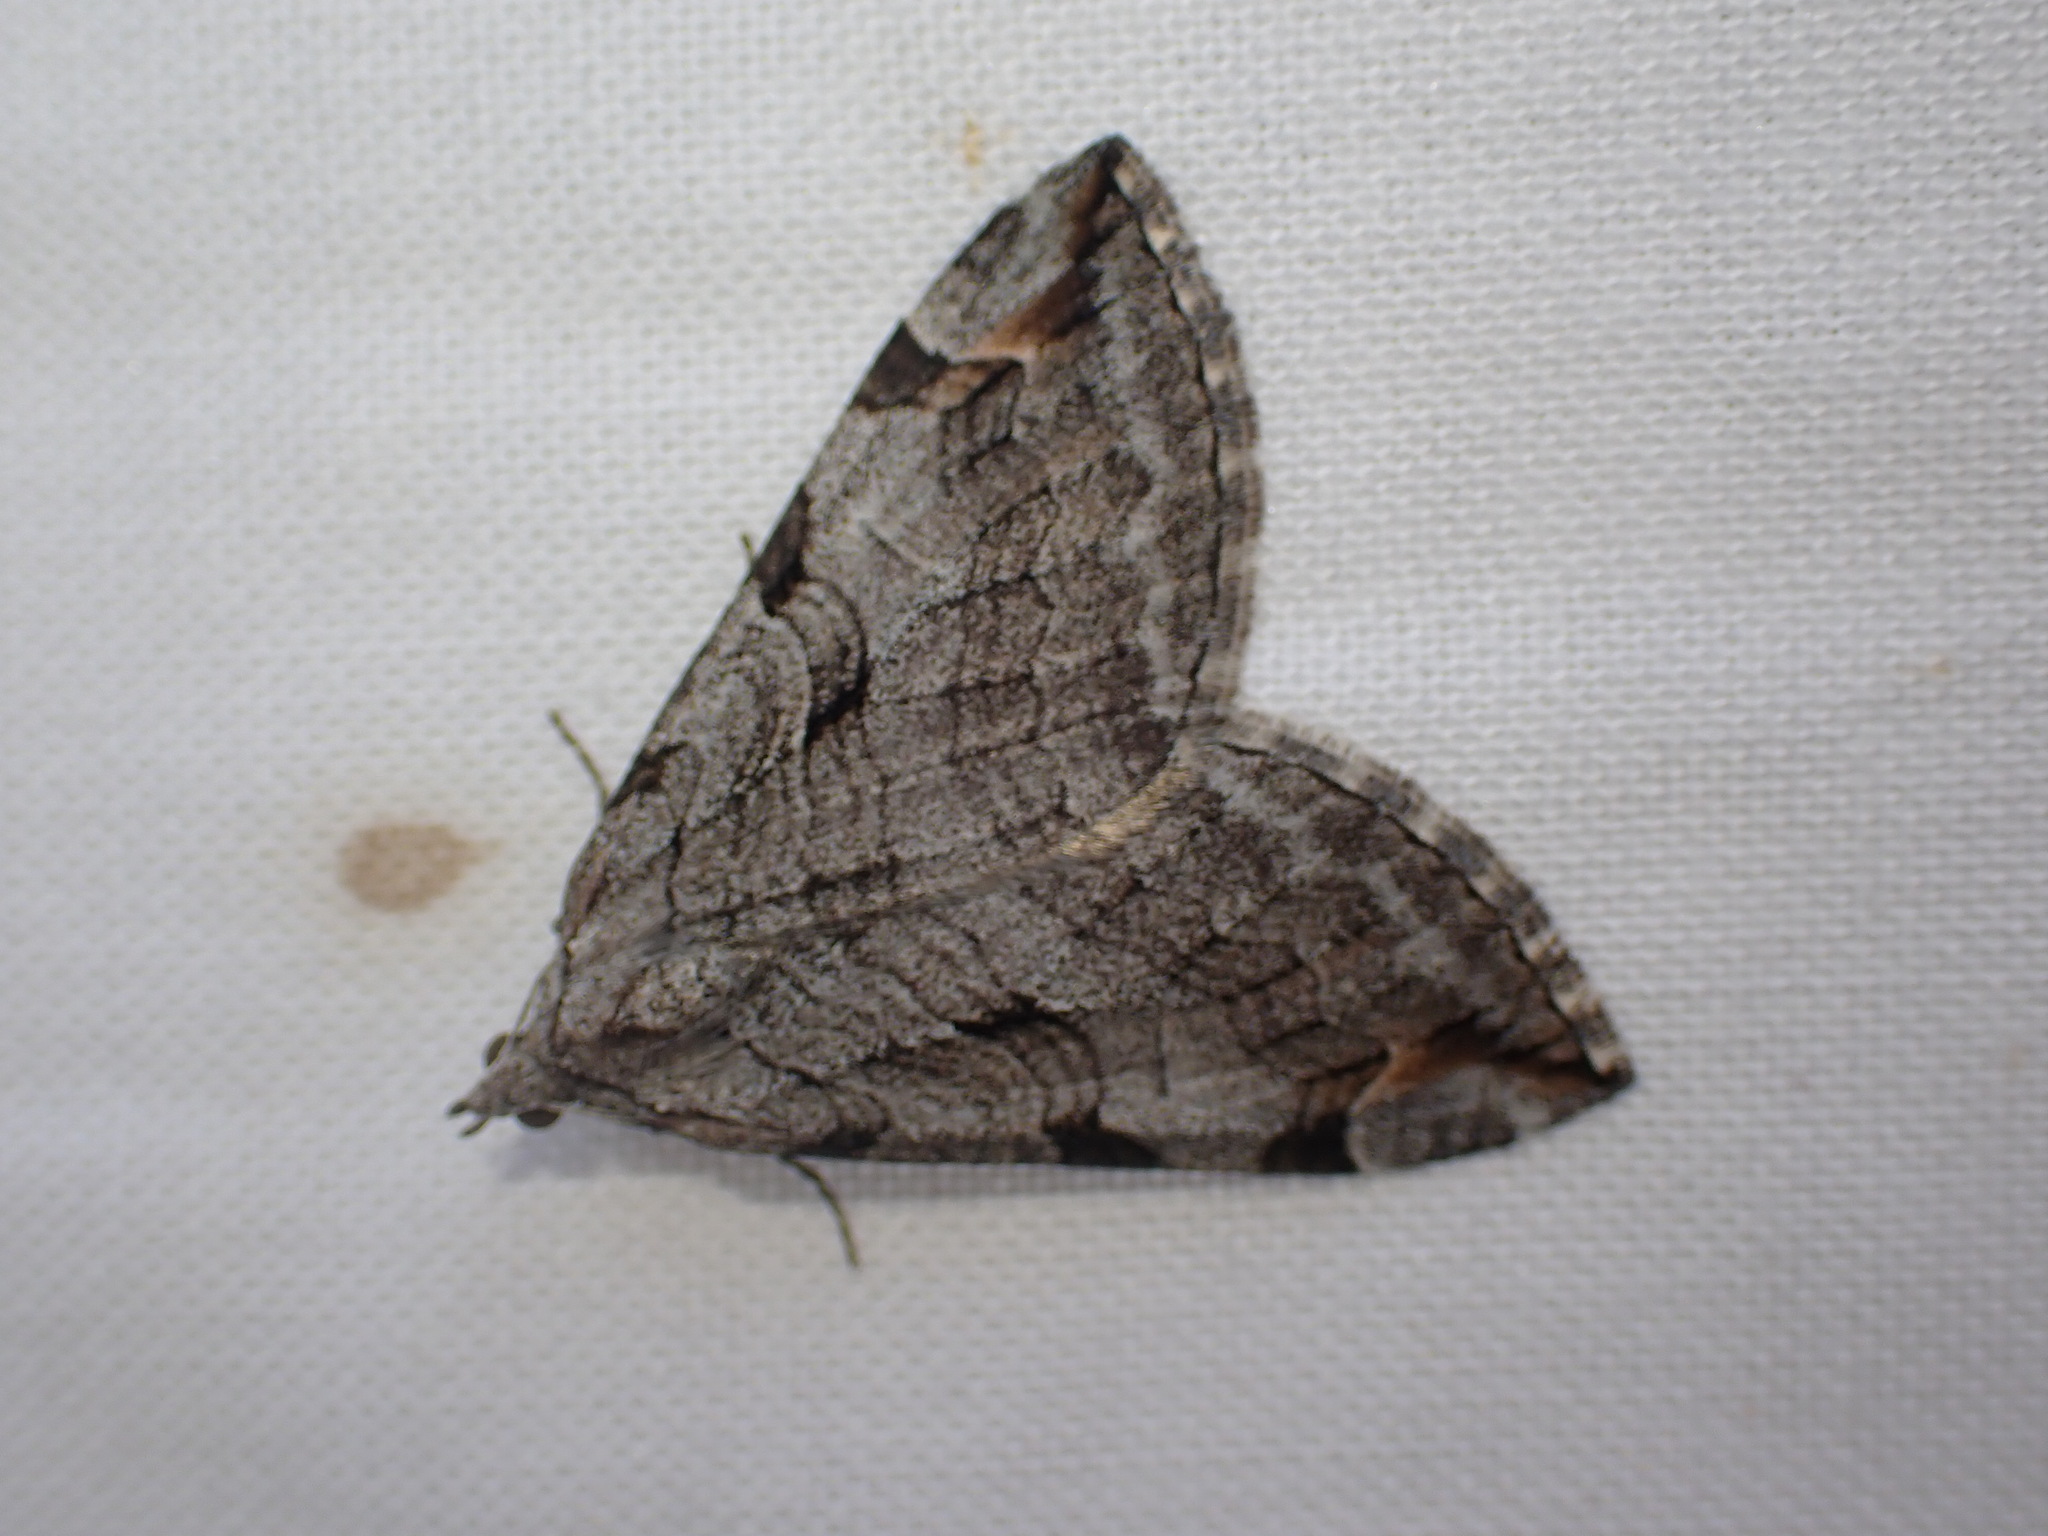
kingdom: Animalia
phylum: Arthropoda
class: Insecta
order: Lepidoptera
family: Geometridae
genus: Aplocera
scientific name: Aplocera plagiata
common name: Treble-bar
